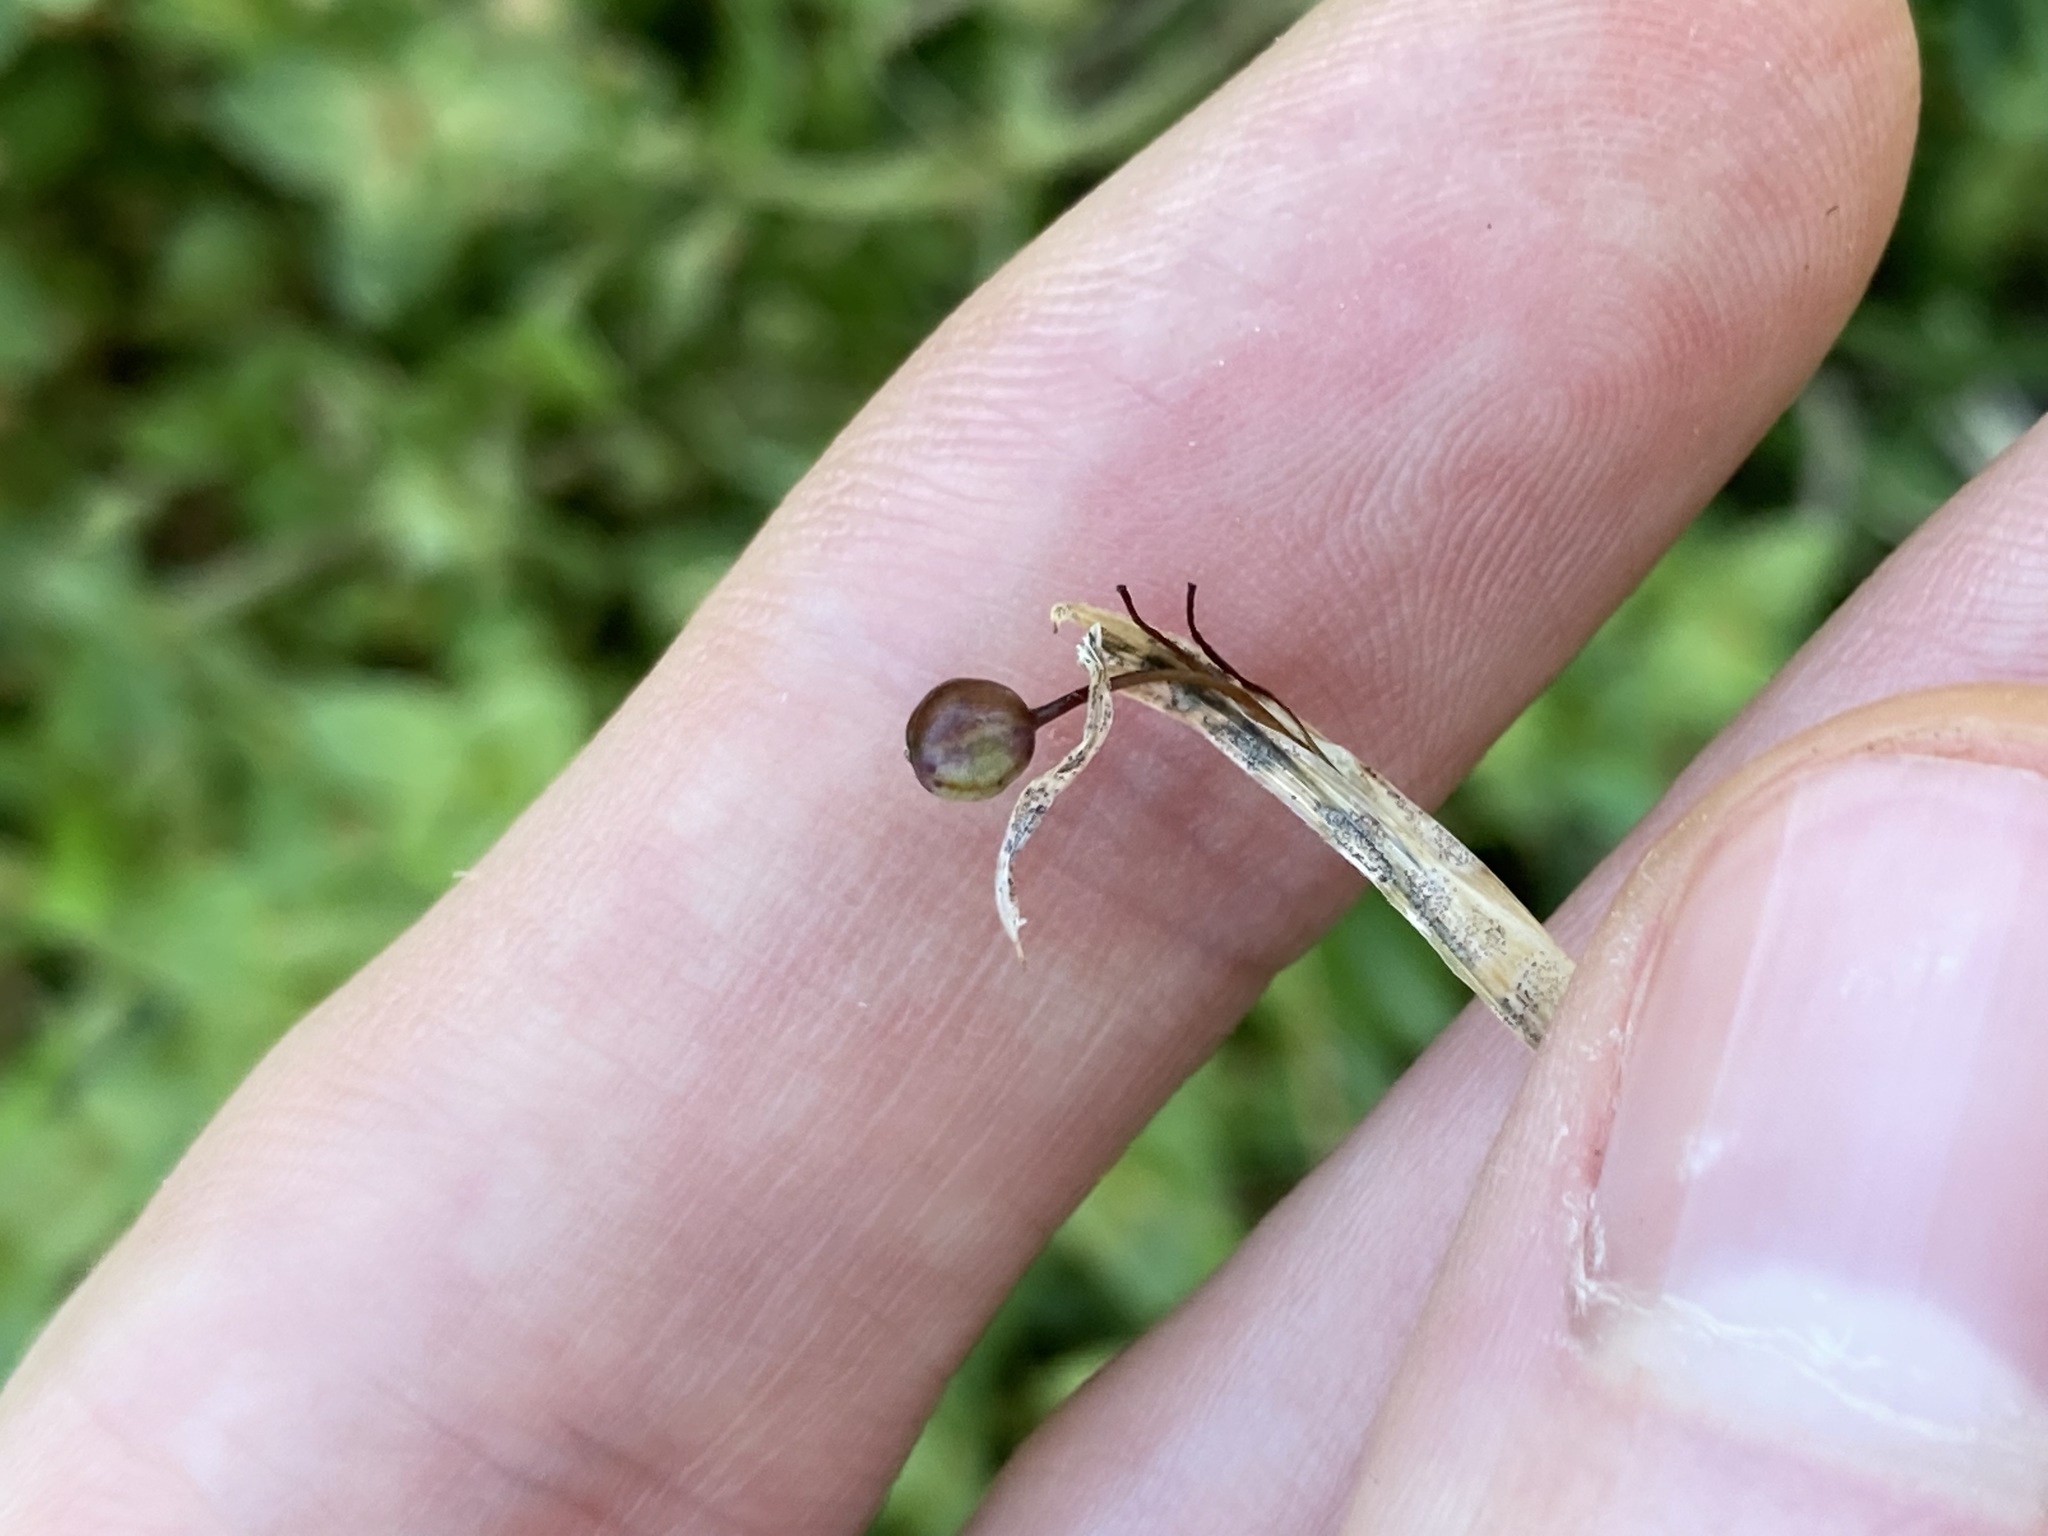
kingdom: Plantae
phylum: Tracheophyta
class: Liliopsida
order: Asparagales
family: Iridaceae
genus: Sisyrinchium
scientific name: Sisyrinchium micranthum
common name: Bermuda pigroot
